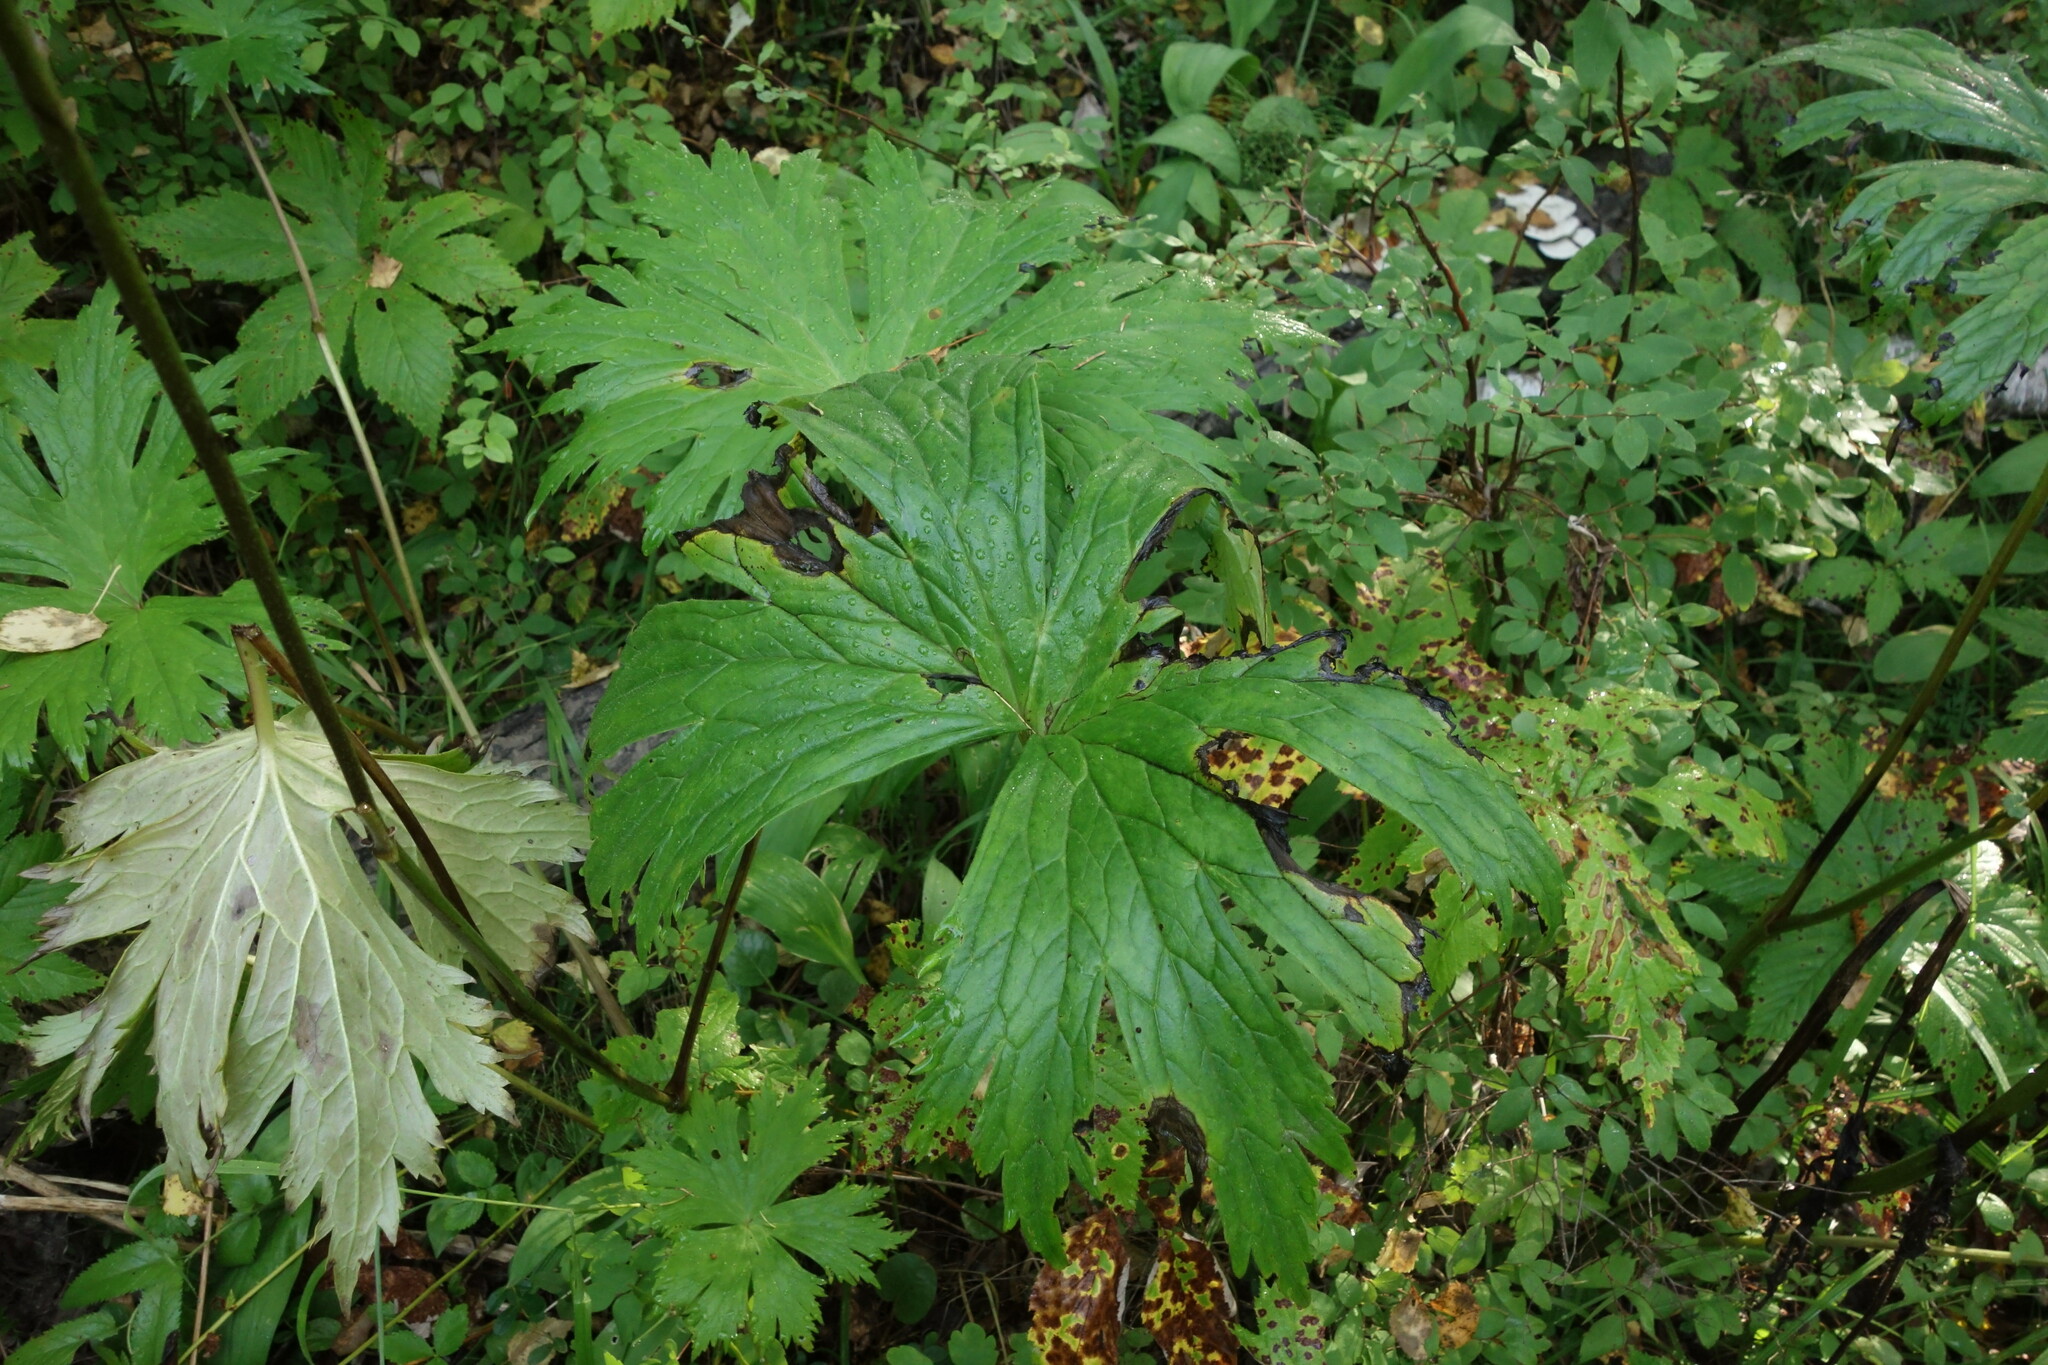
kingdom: Plantae
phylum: Tracheophyta
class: Magnoliopsida
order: Ranunculales
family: Ranunculaceae
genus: Aconitum
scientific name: Aconitum septentrionale
